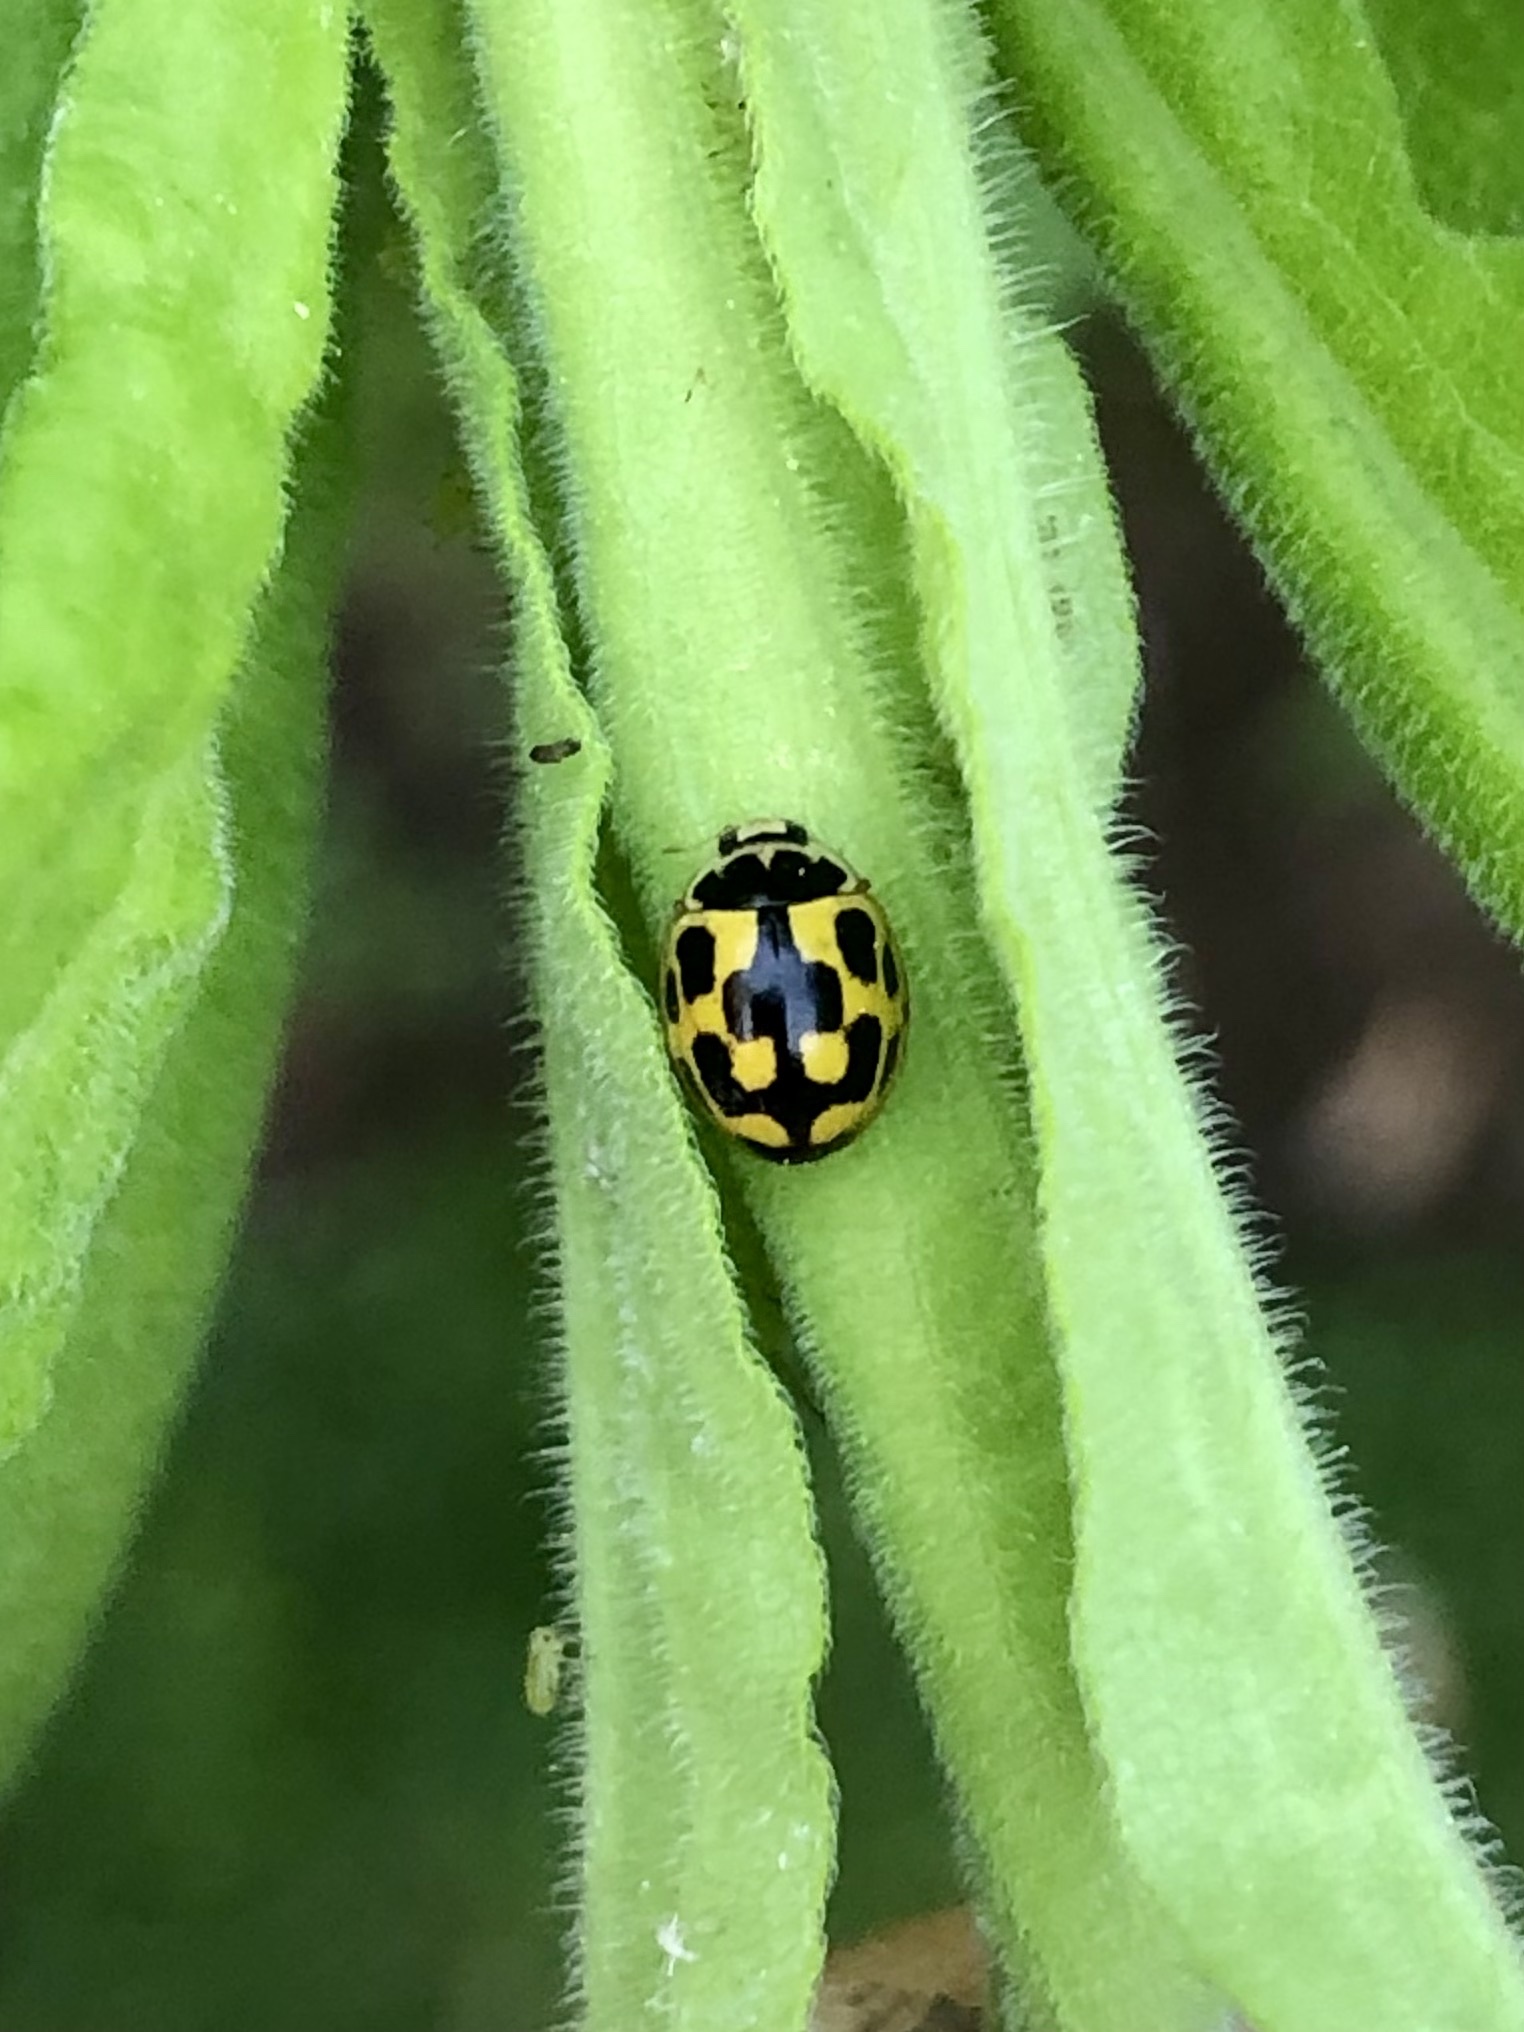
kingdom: Animalia
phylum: Arthropoda
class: Insecta
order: Coleoptera
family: Coccinellidae
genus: Propylaea
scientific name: Propylaea quatuordecimpunctata
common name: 14-spotted ladybird beetle
